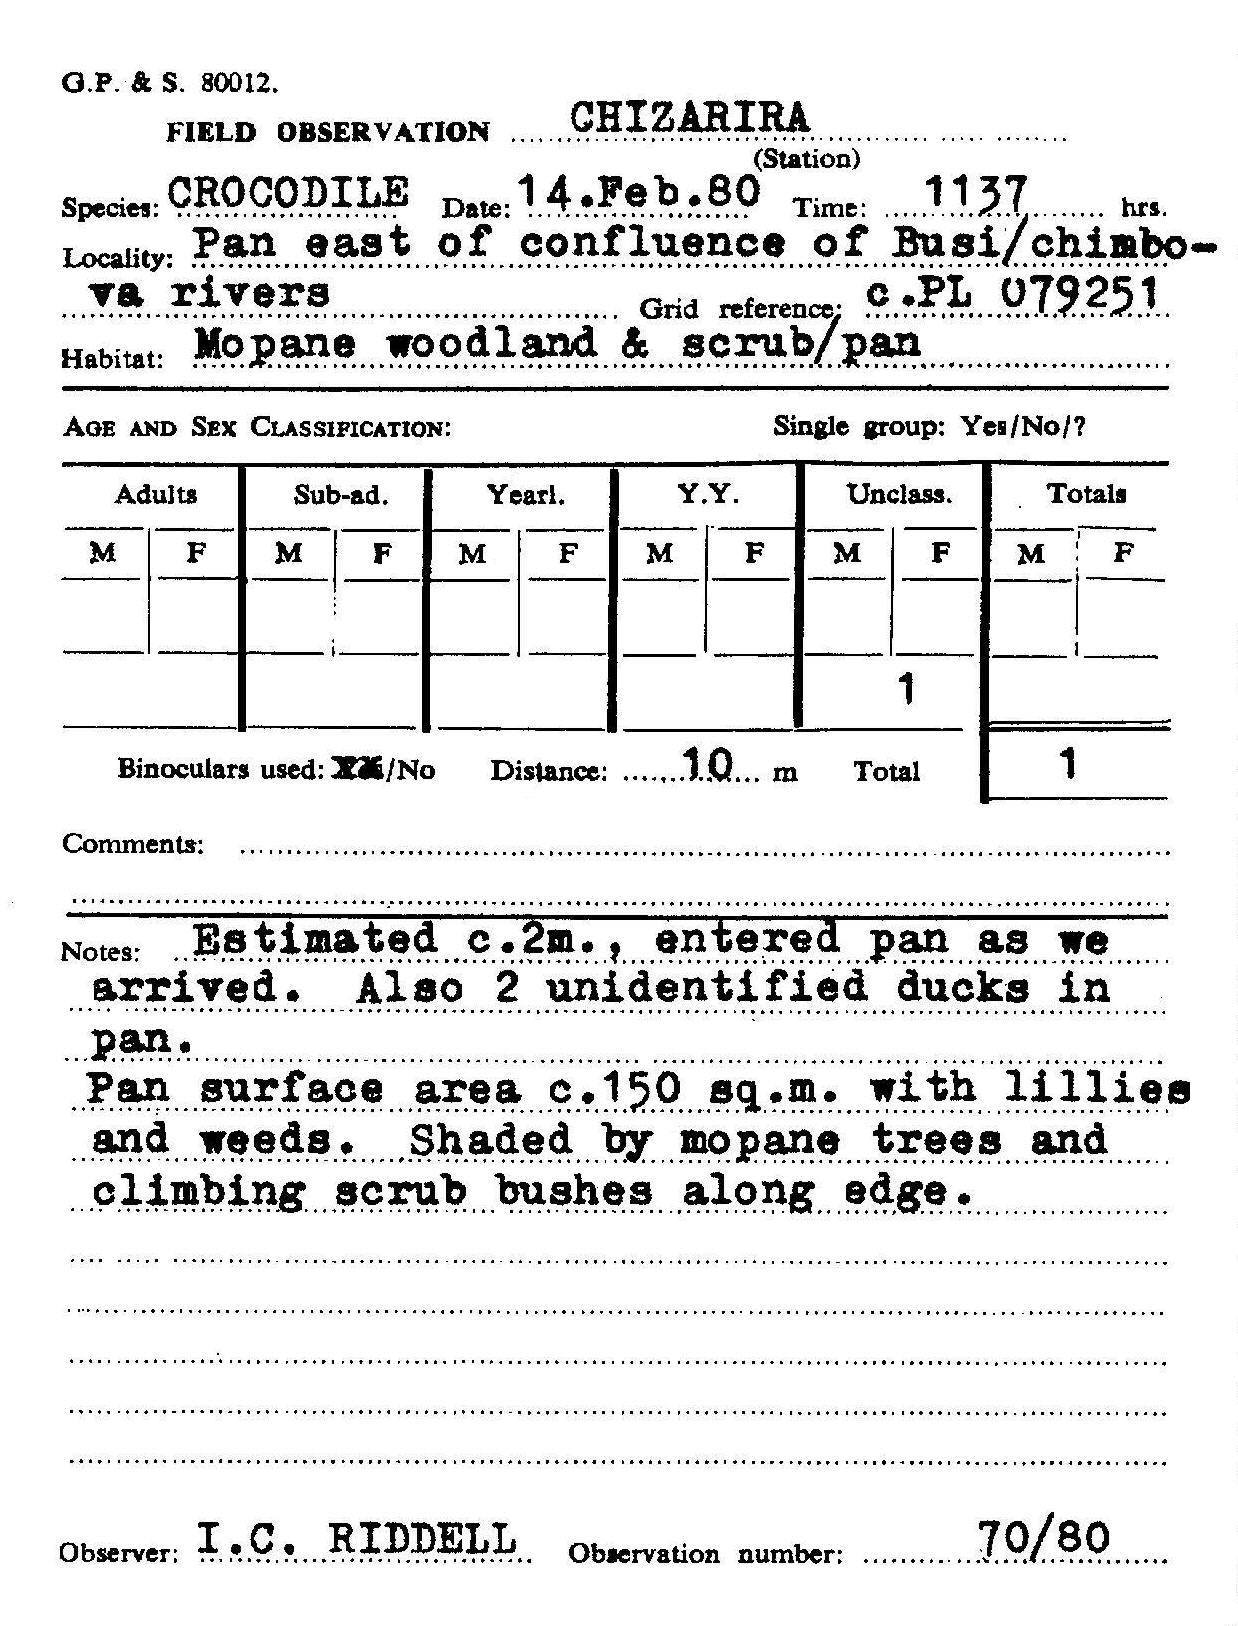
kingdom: Animalia
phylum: Chordata
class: Crocodylia
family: Crocodylidae
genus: Crocodylus
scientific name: Crocodylus niloticus
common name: Nile crocodile
